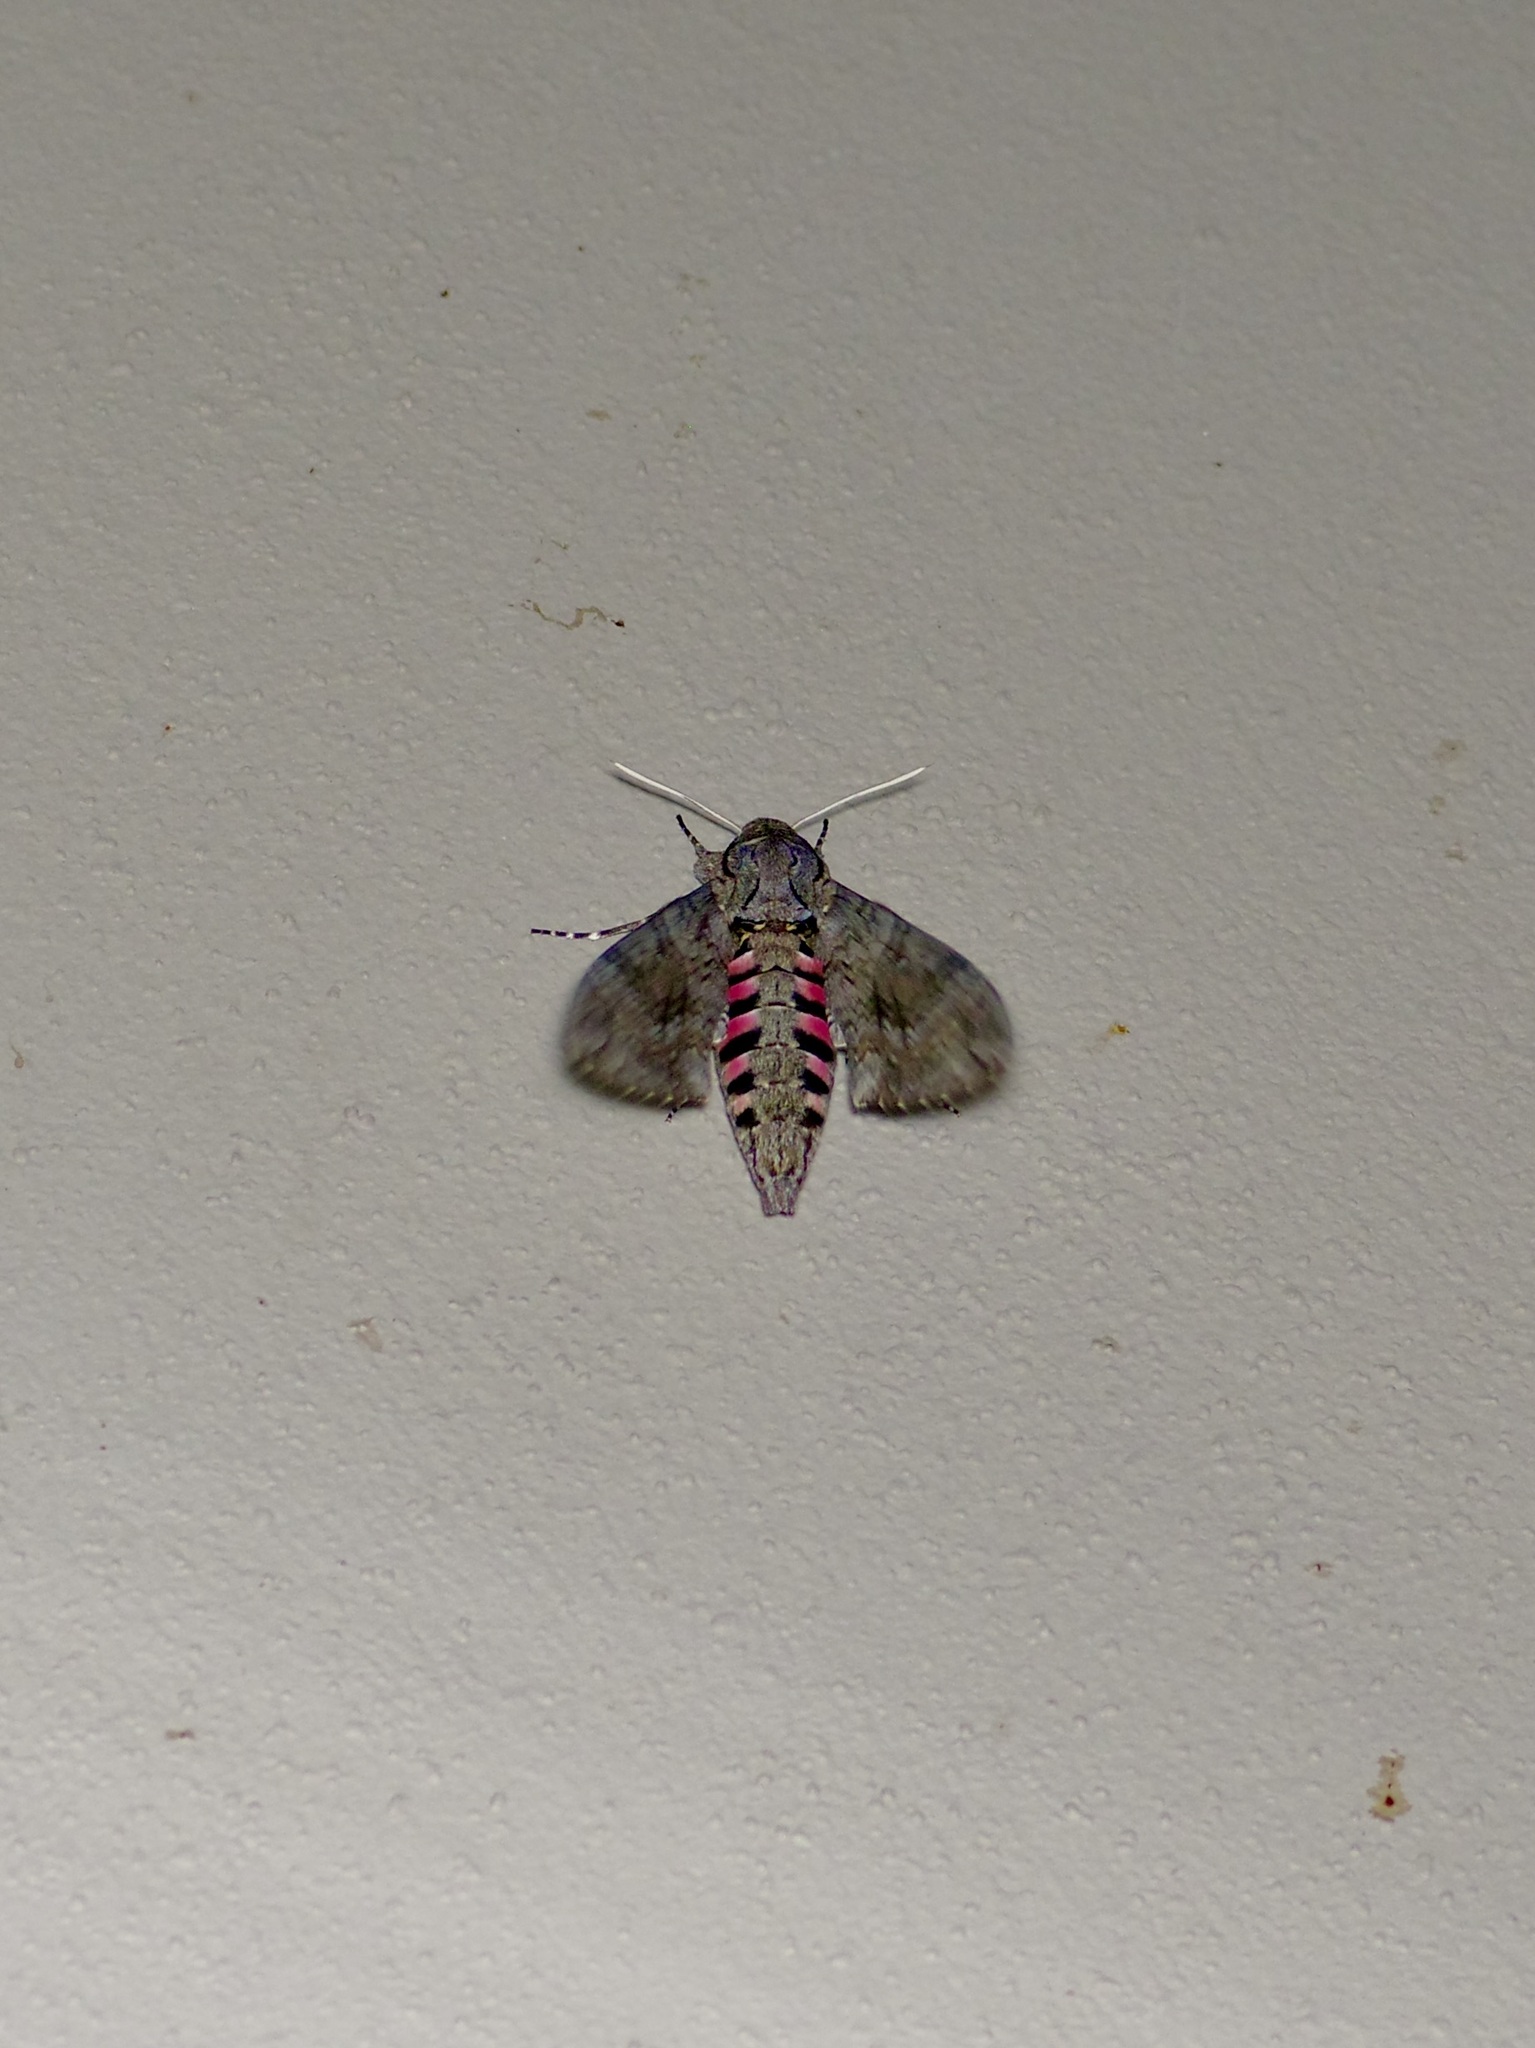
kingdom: Animalia
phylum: Arthropoda
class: Insecta
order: Lepidoptera
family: Sphingidae
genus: Agrius
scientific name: Agrius cingulata
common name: Pink-spotted hawkmoth
